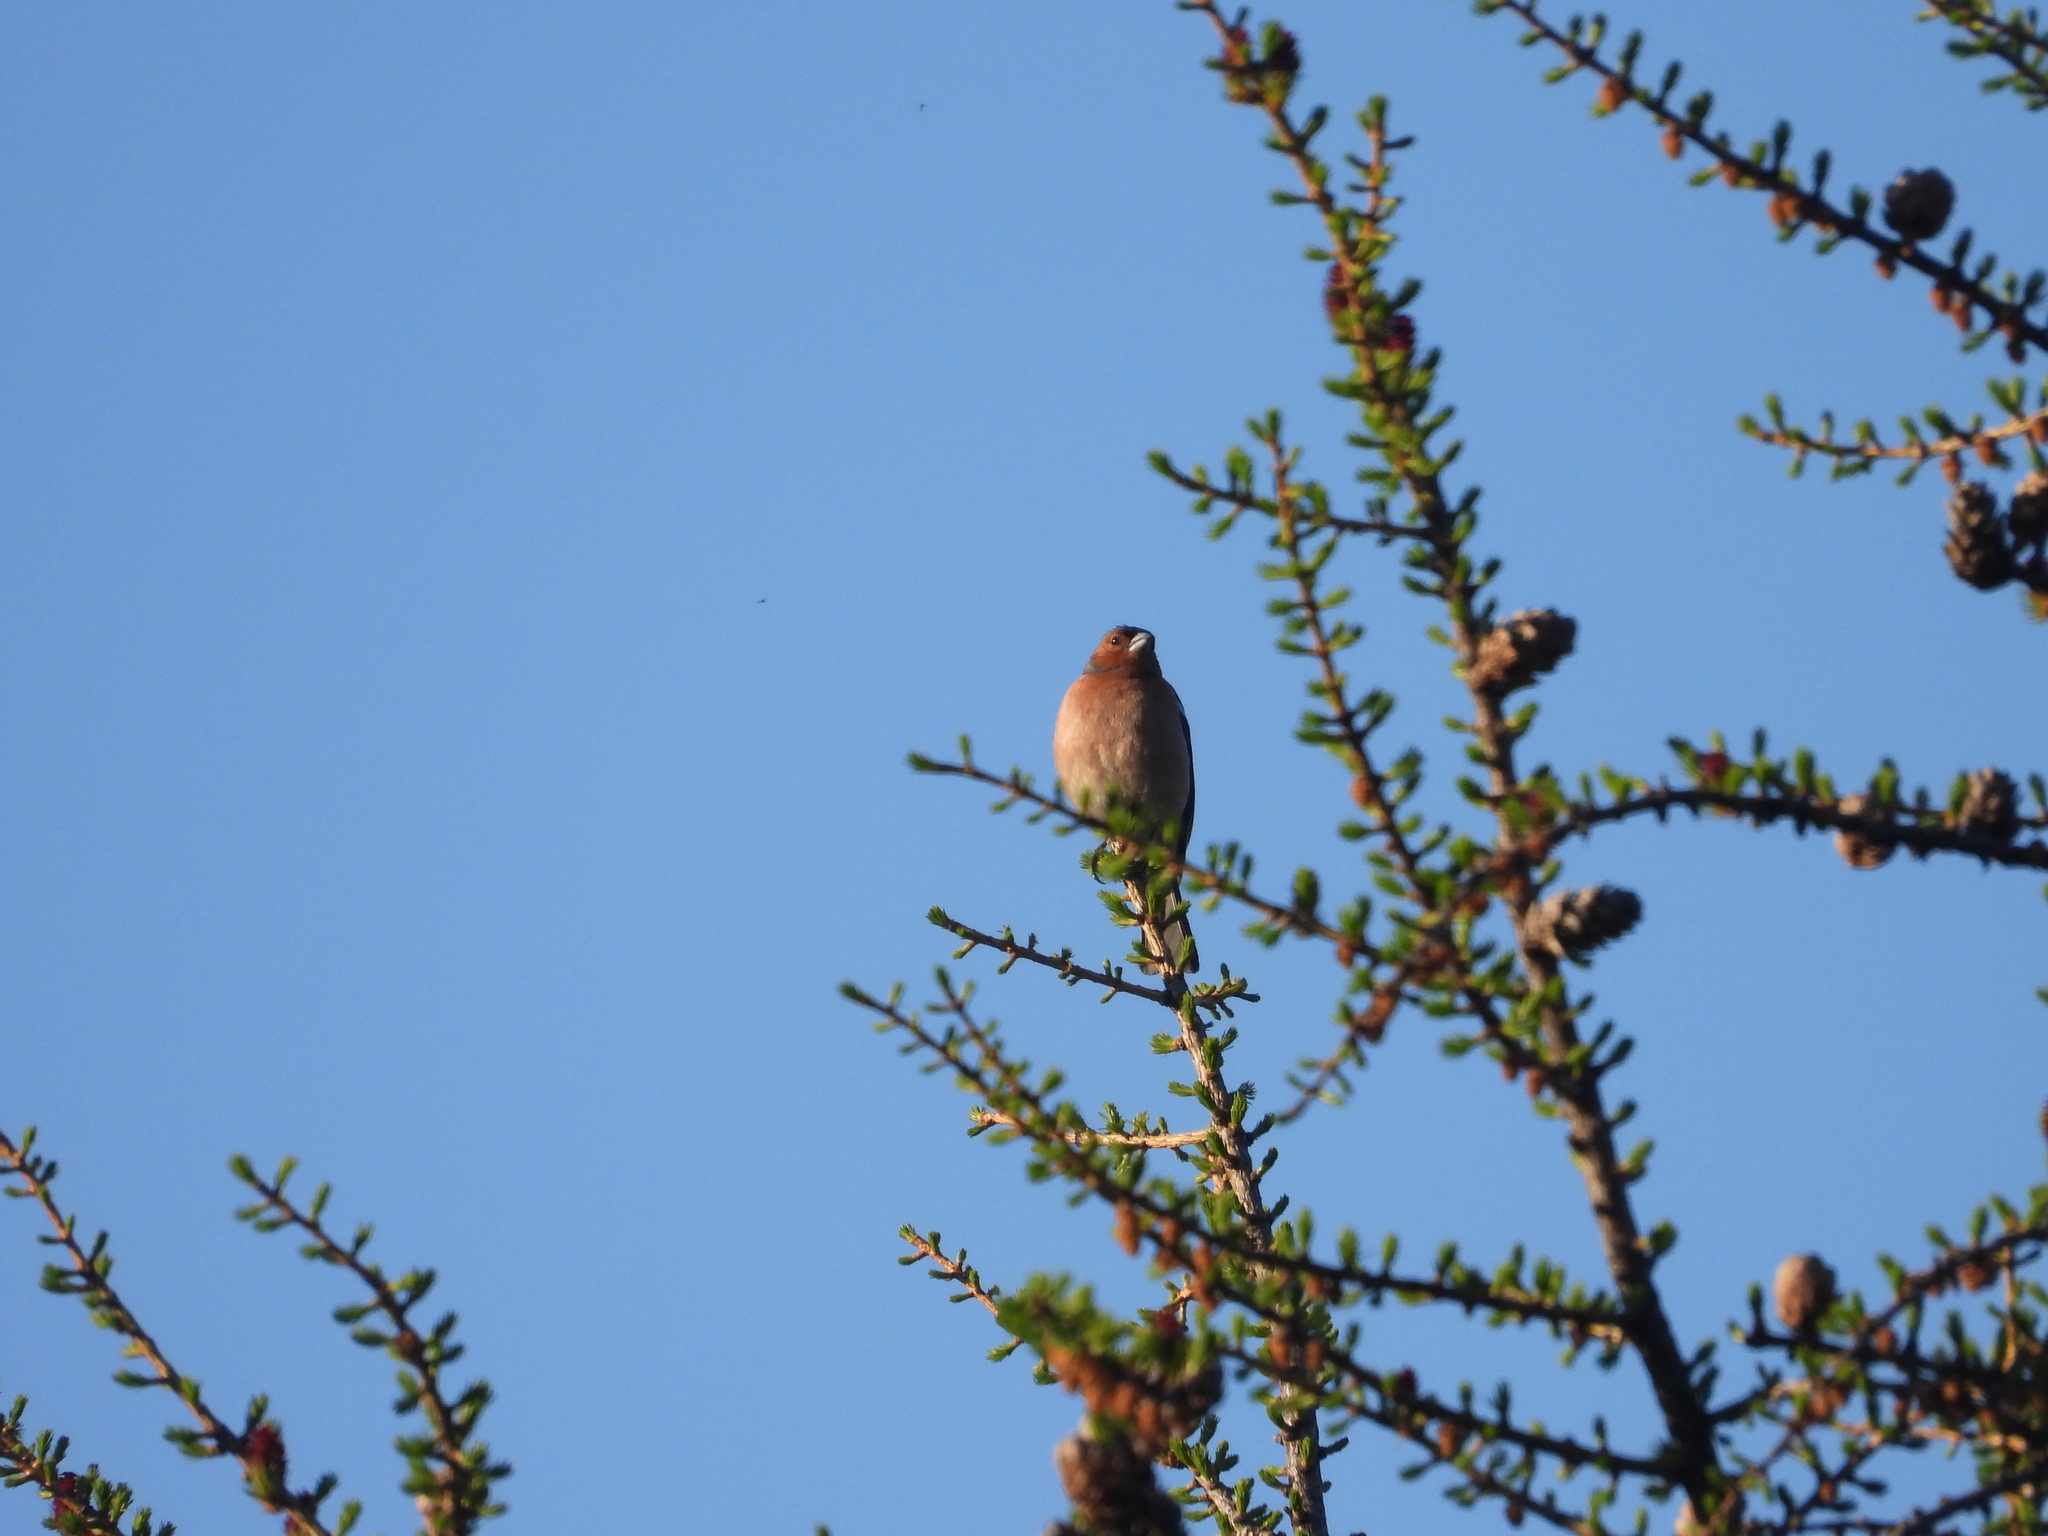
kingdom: Animalia
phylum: Chordata
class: Aves
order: Passeriformes
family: Fringillidae
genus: Fringilla
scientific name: Fringilla coelebs
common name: Common chaffinch
